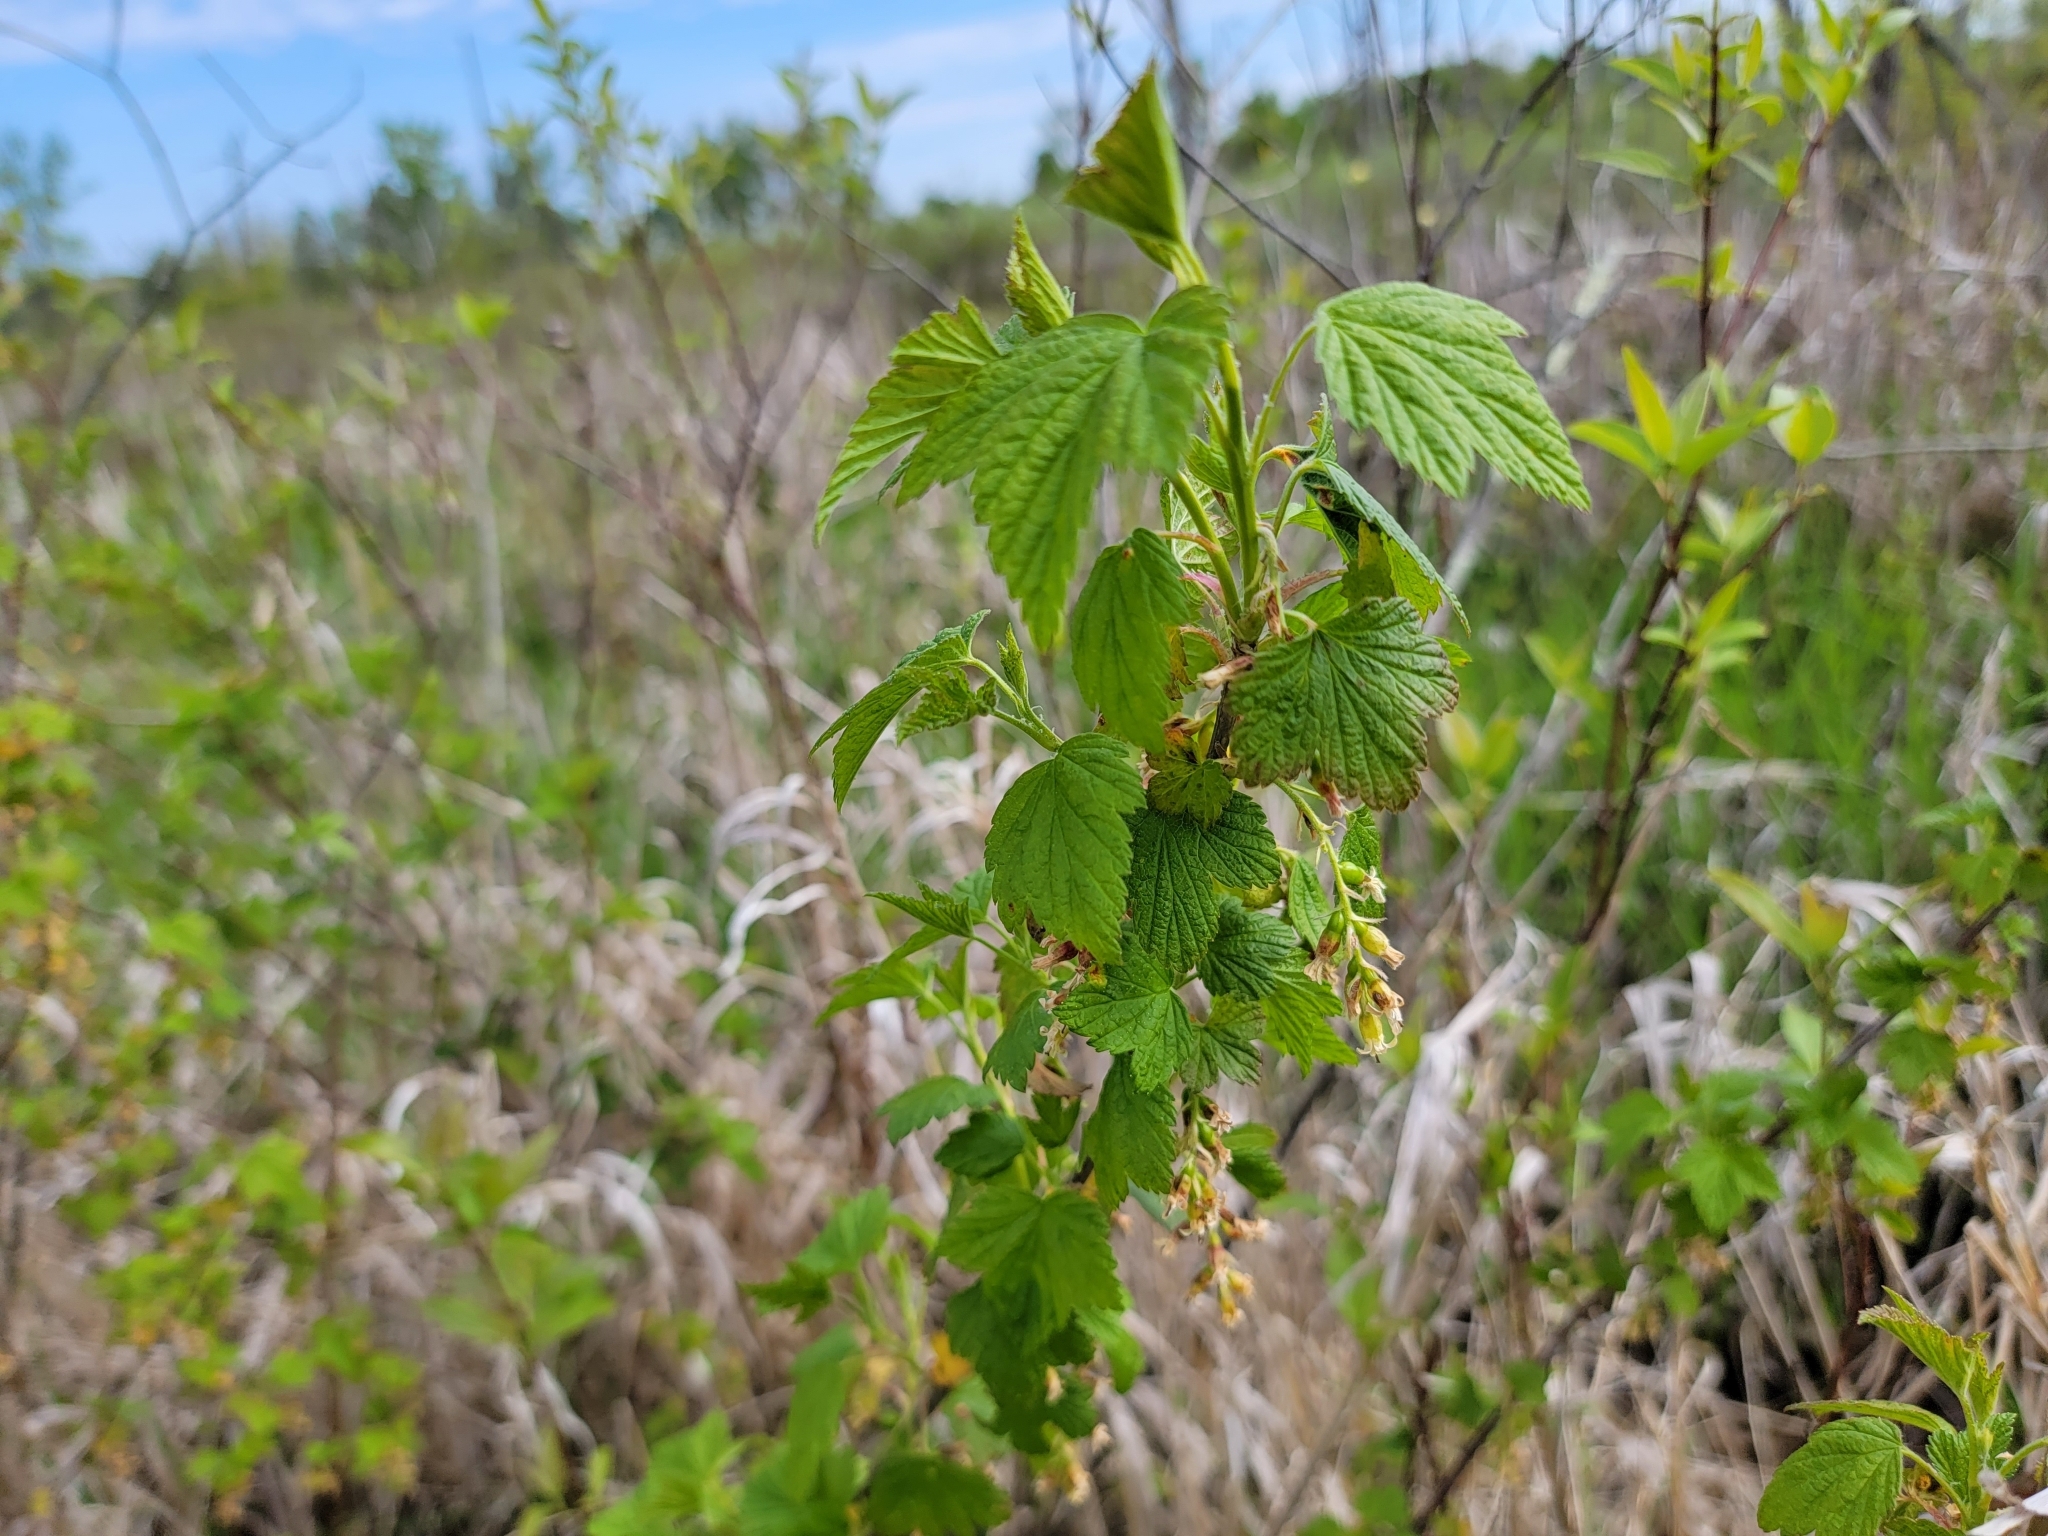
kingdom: Plantae
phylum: Tracheophyta
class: Magnoliopsida
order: Saxifragales
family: Grossulariaceae
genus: Ribes
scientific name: Ribes americanum
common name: American black currant
